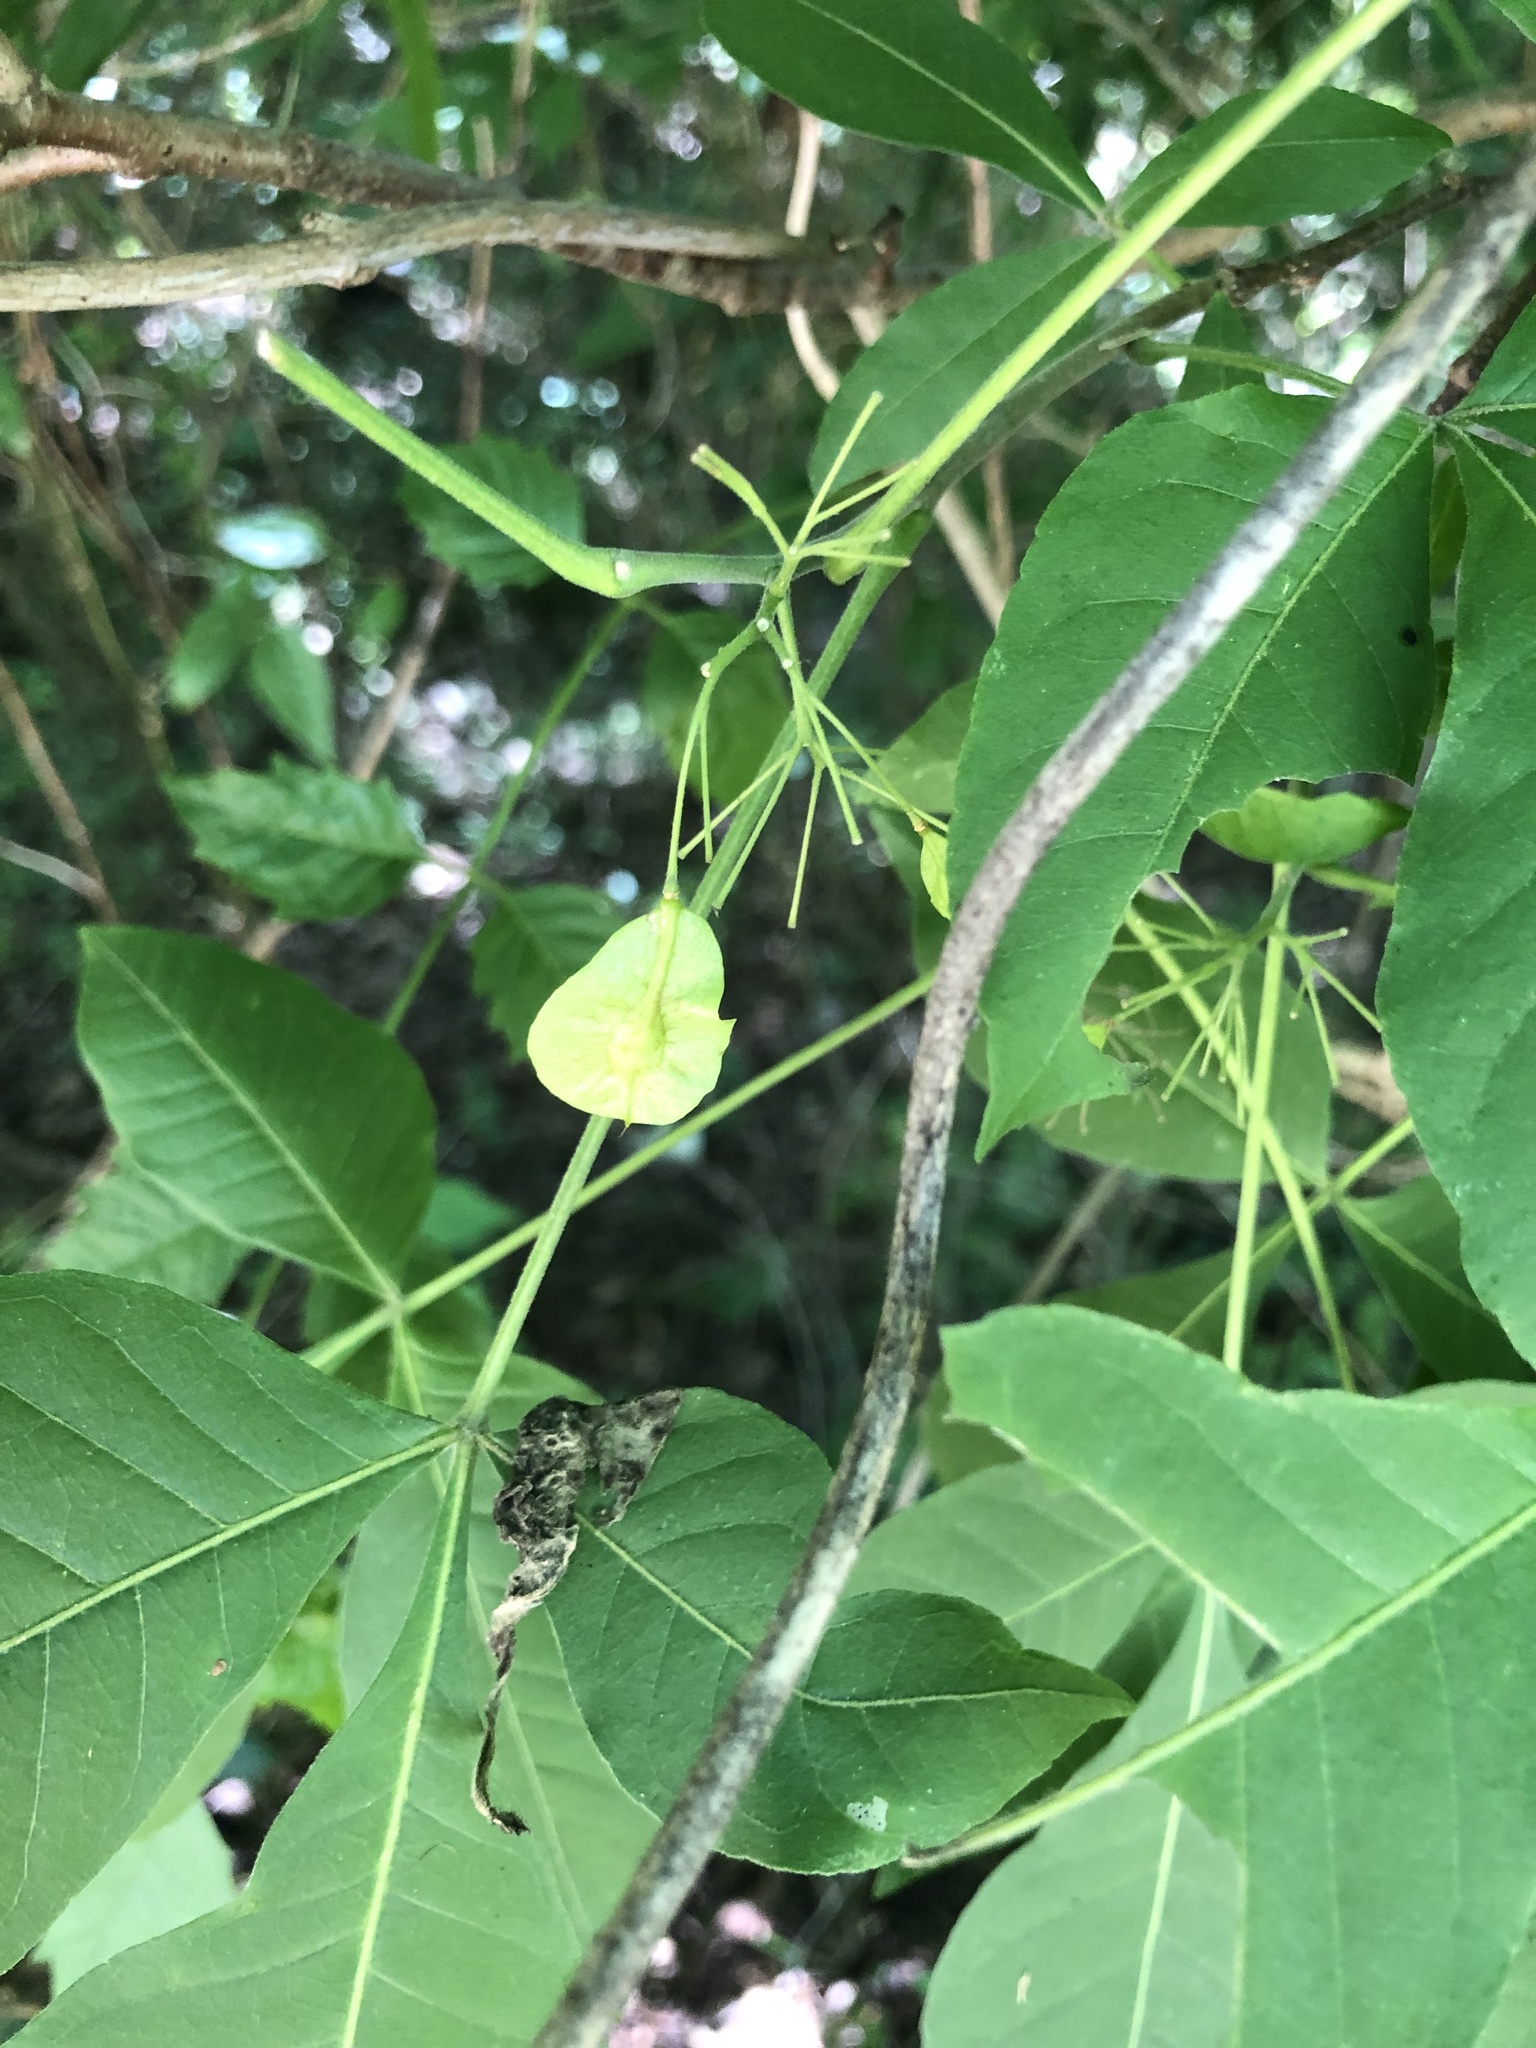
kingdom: Plantae
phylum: Tracheophyta
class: Magnoliopsida
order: Sapindales
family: Rutaceae
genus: Ptelea
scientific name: Ptelea trifoliata
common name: Common hop-tree
